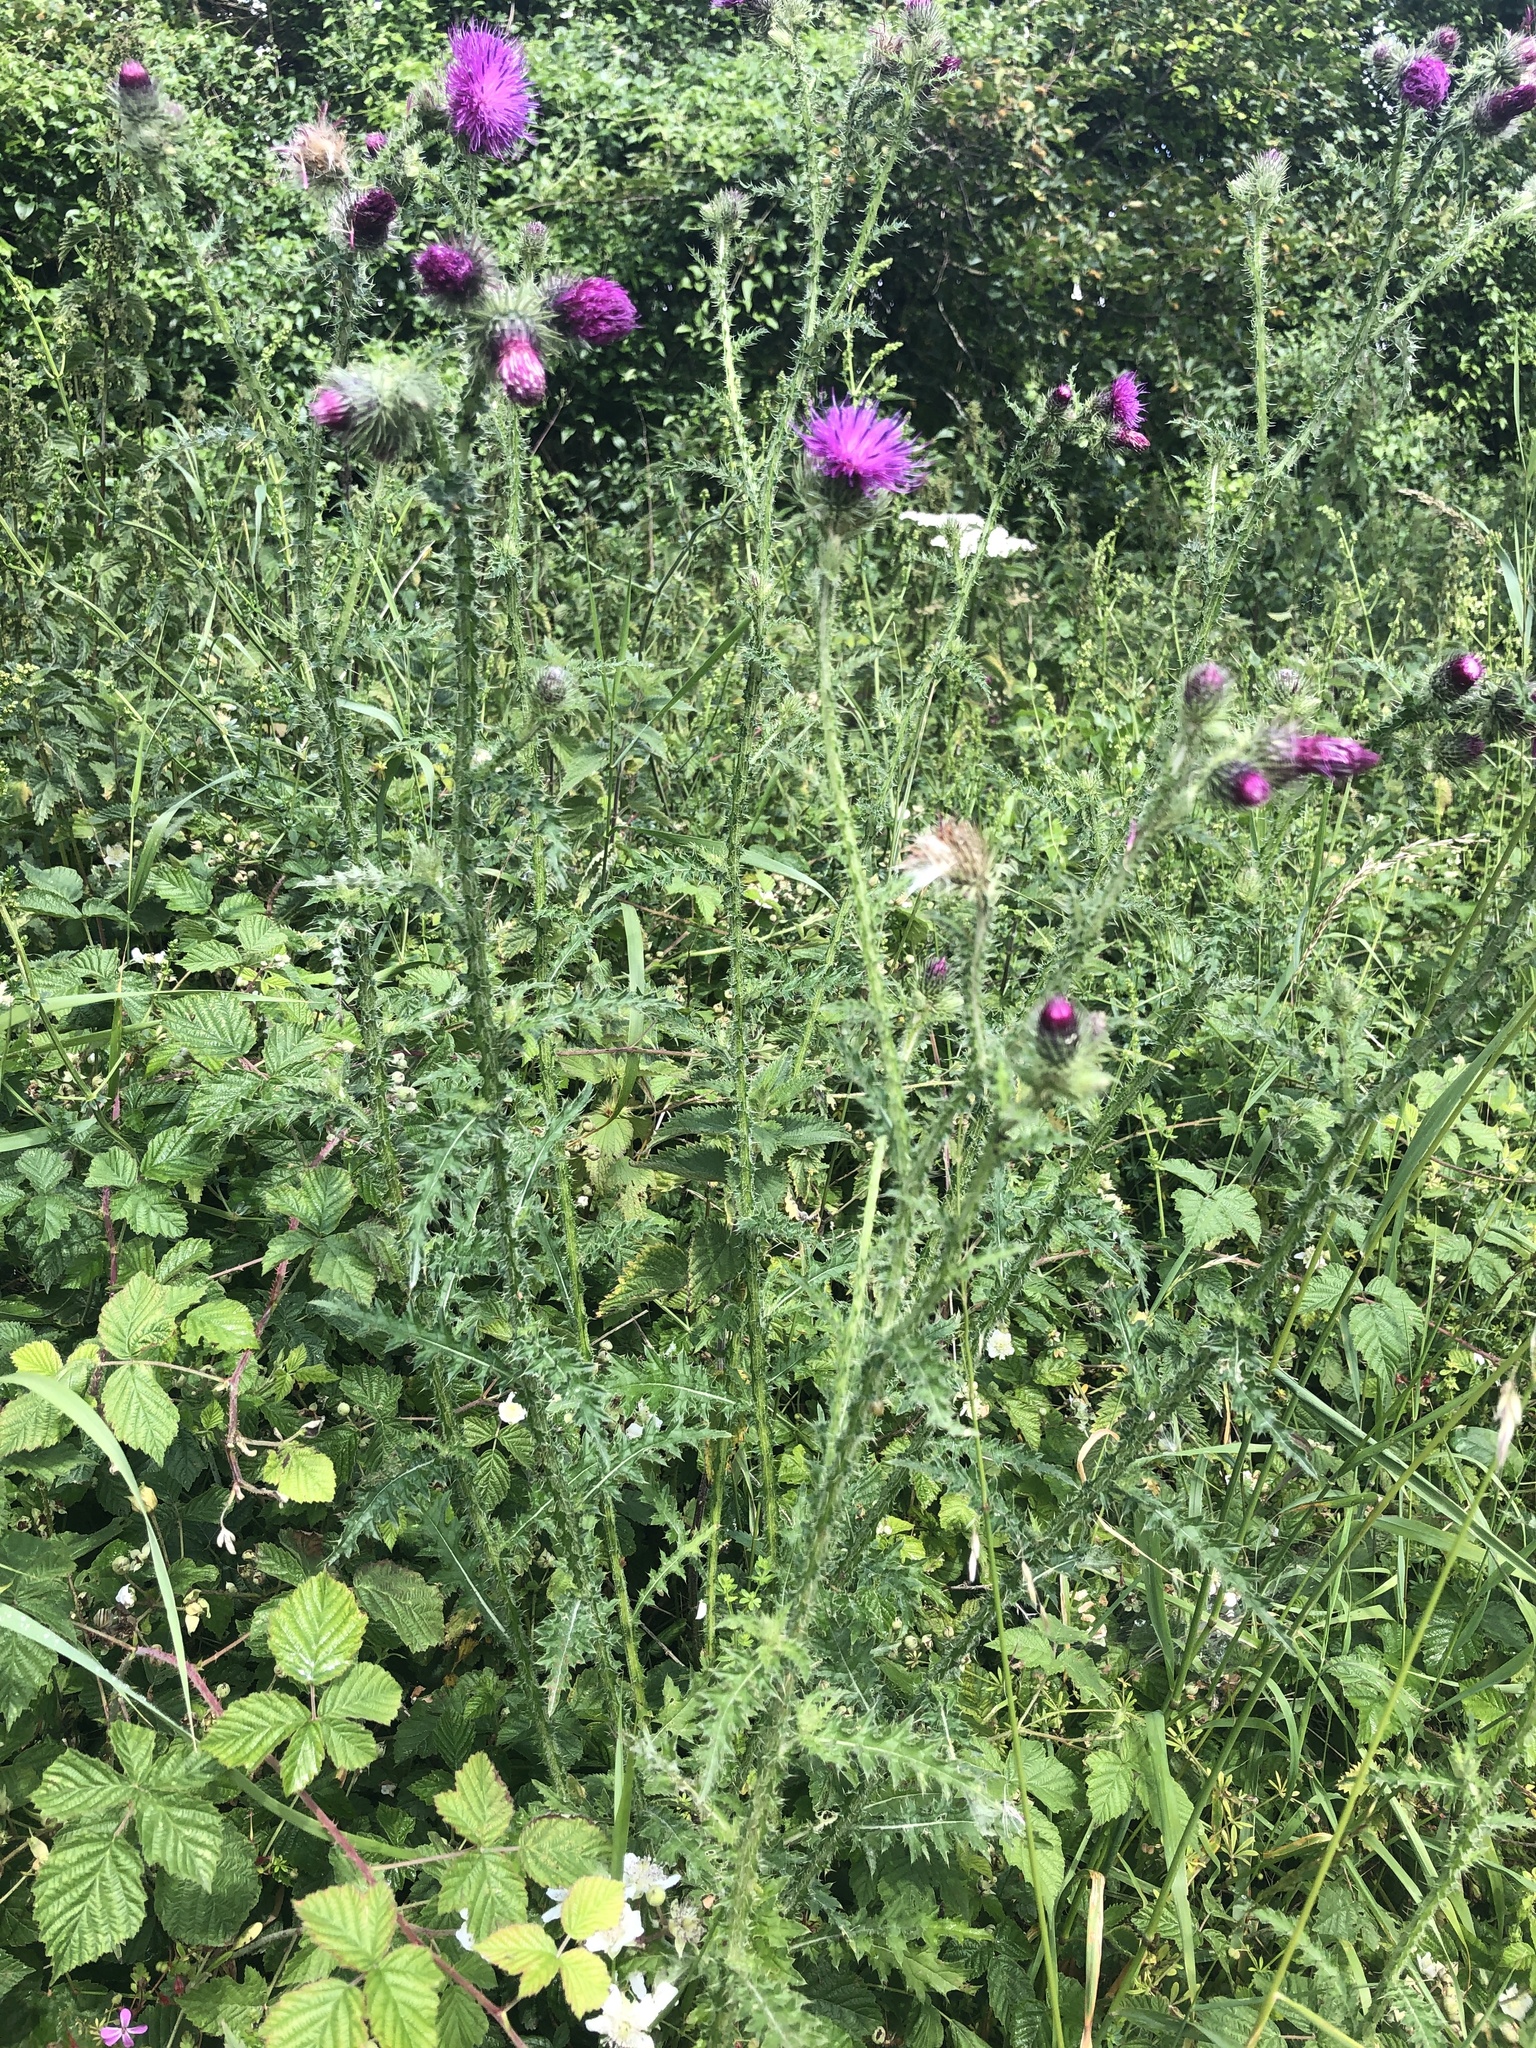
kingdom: Plantae
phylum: Tracheophyta
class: Magnoliopsida
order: Asterales
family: Asteraceae
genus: Cirsium
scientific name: Cirsium palustre
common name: Marsh thistle
